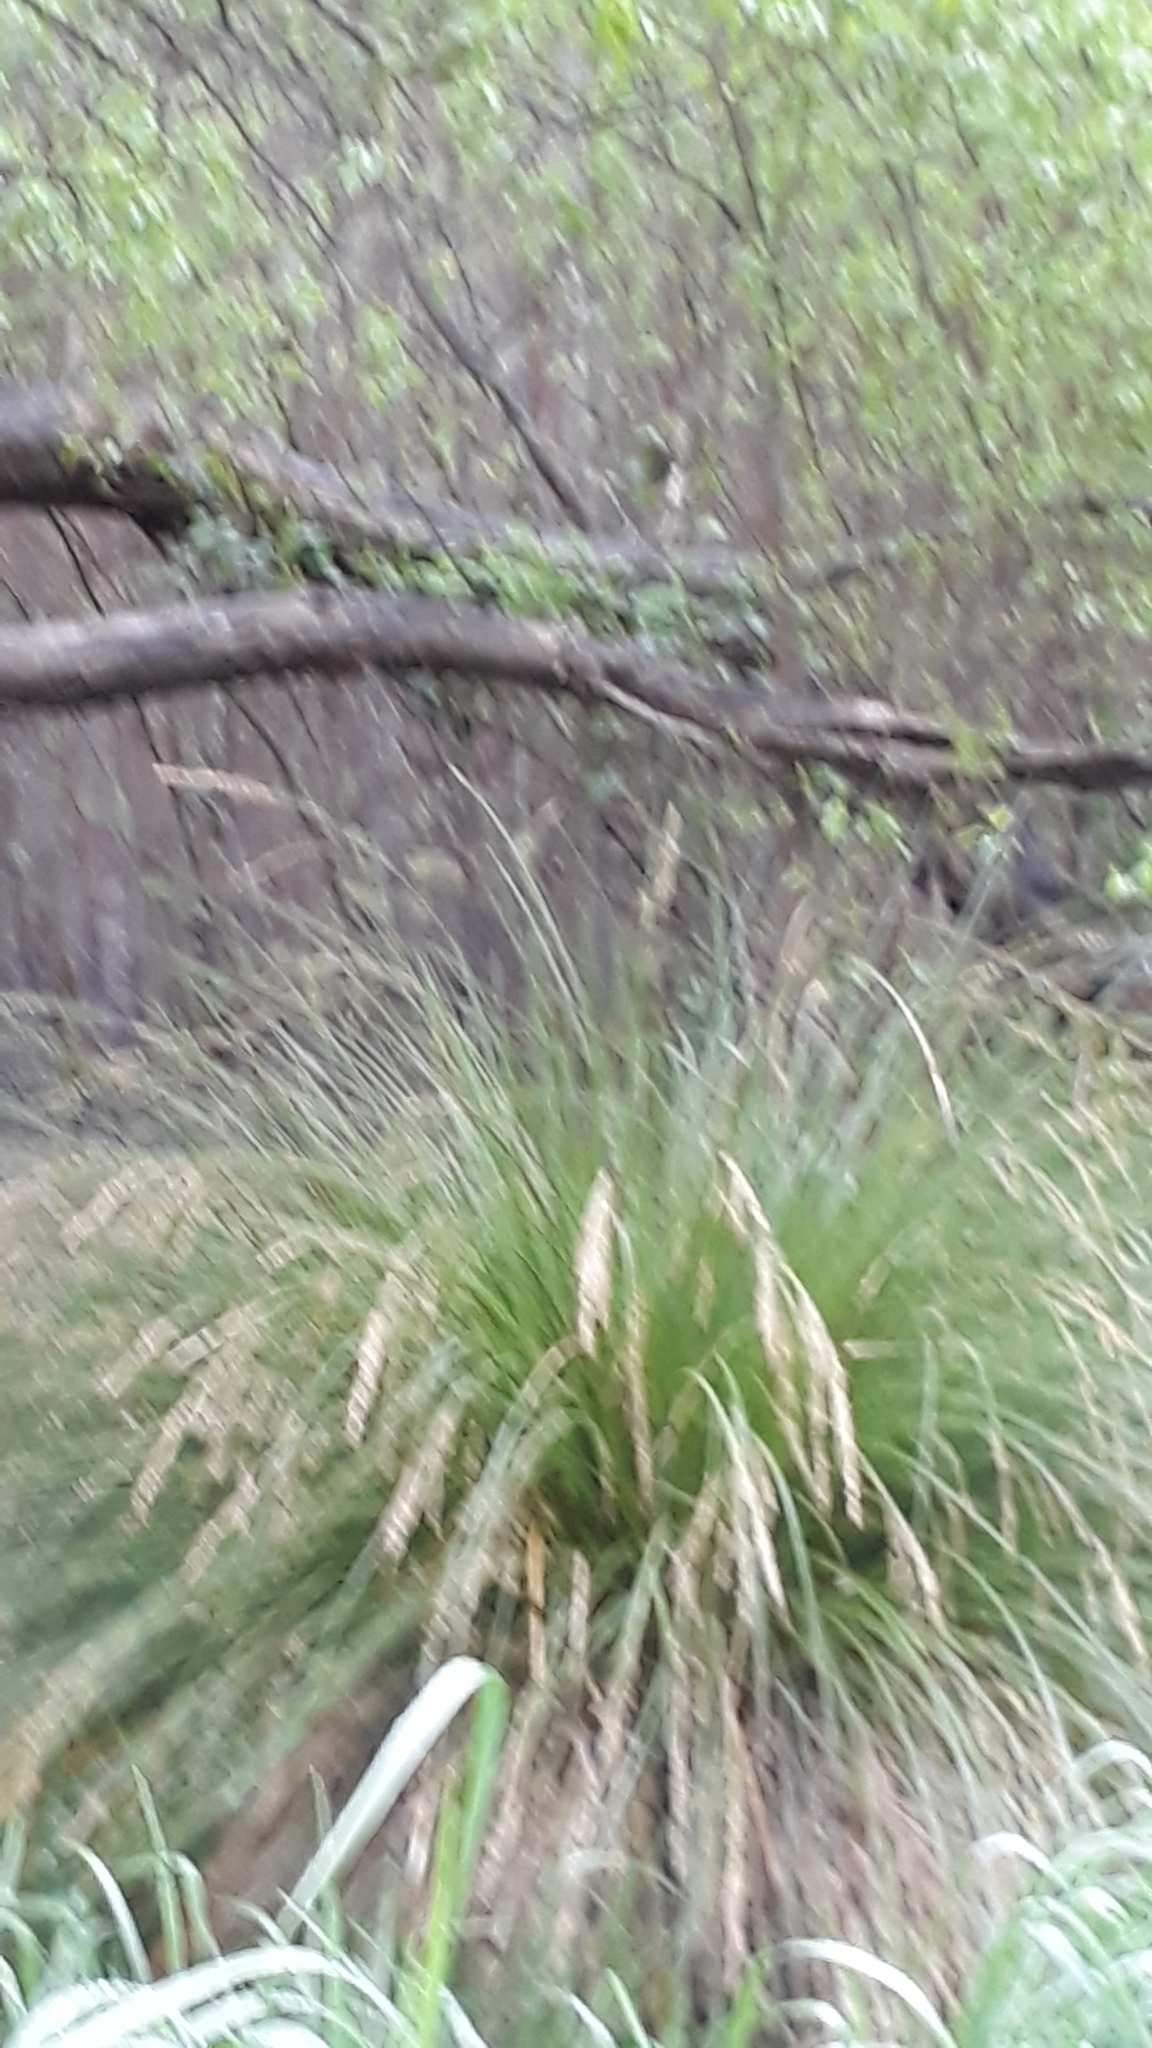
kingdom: Plantae
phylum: Tracheophyta
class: Liliopsida
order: Poales
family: Cyperaceae
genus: Carex
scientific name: Carex secta
